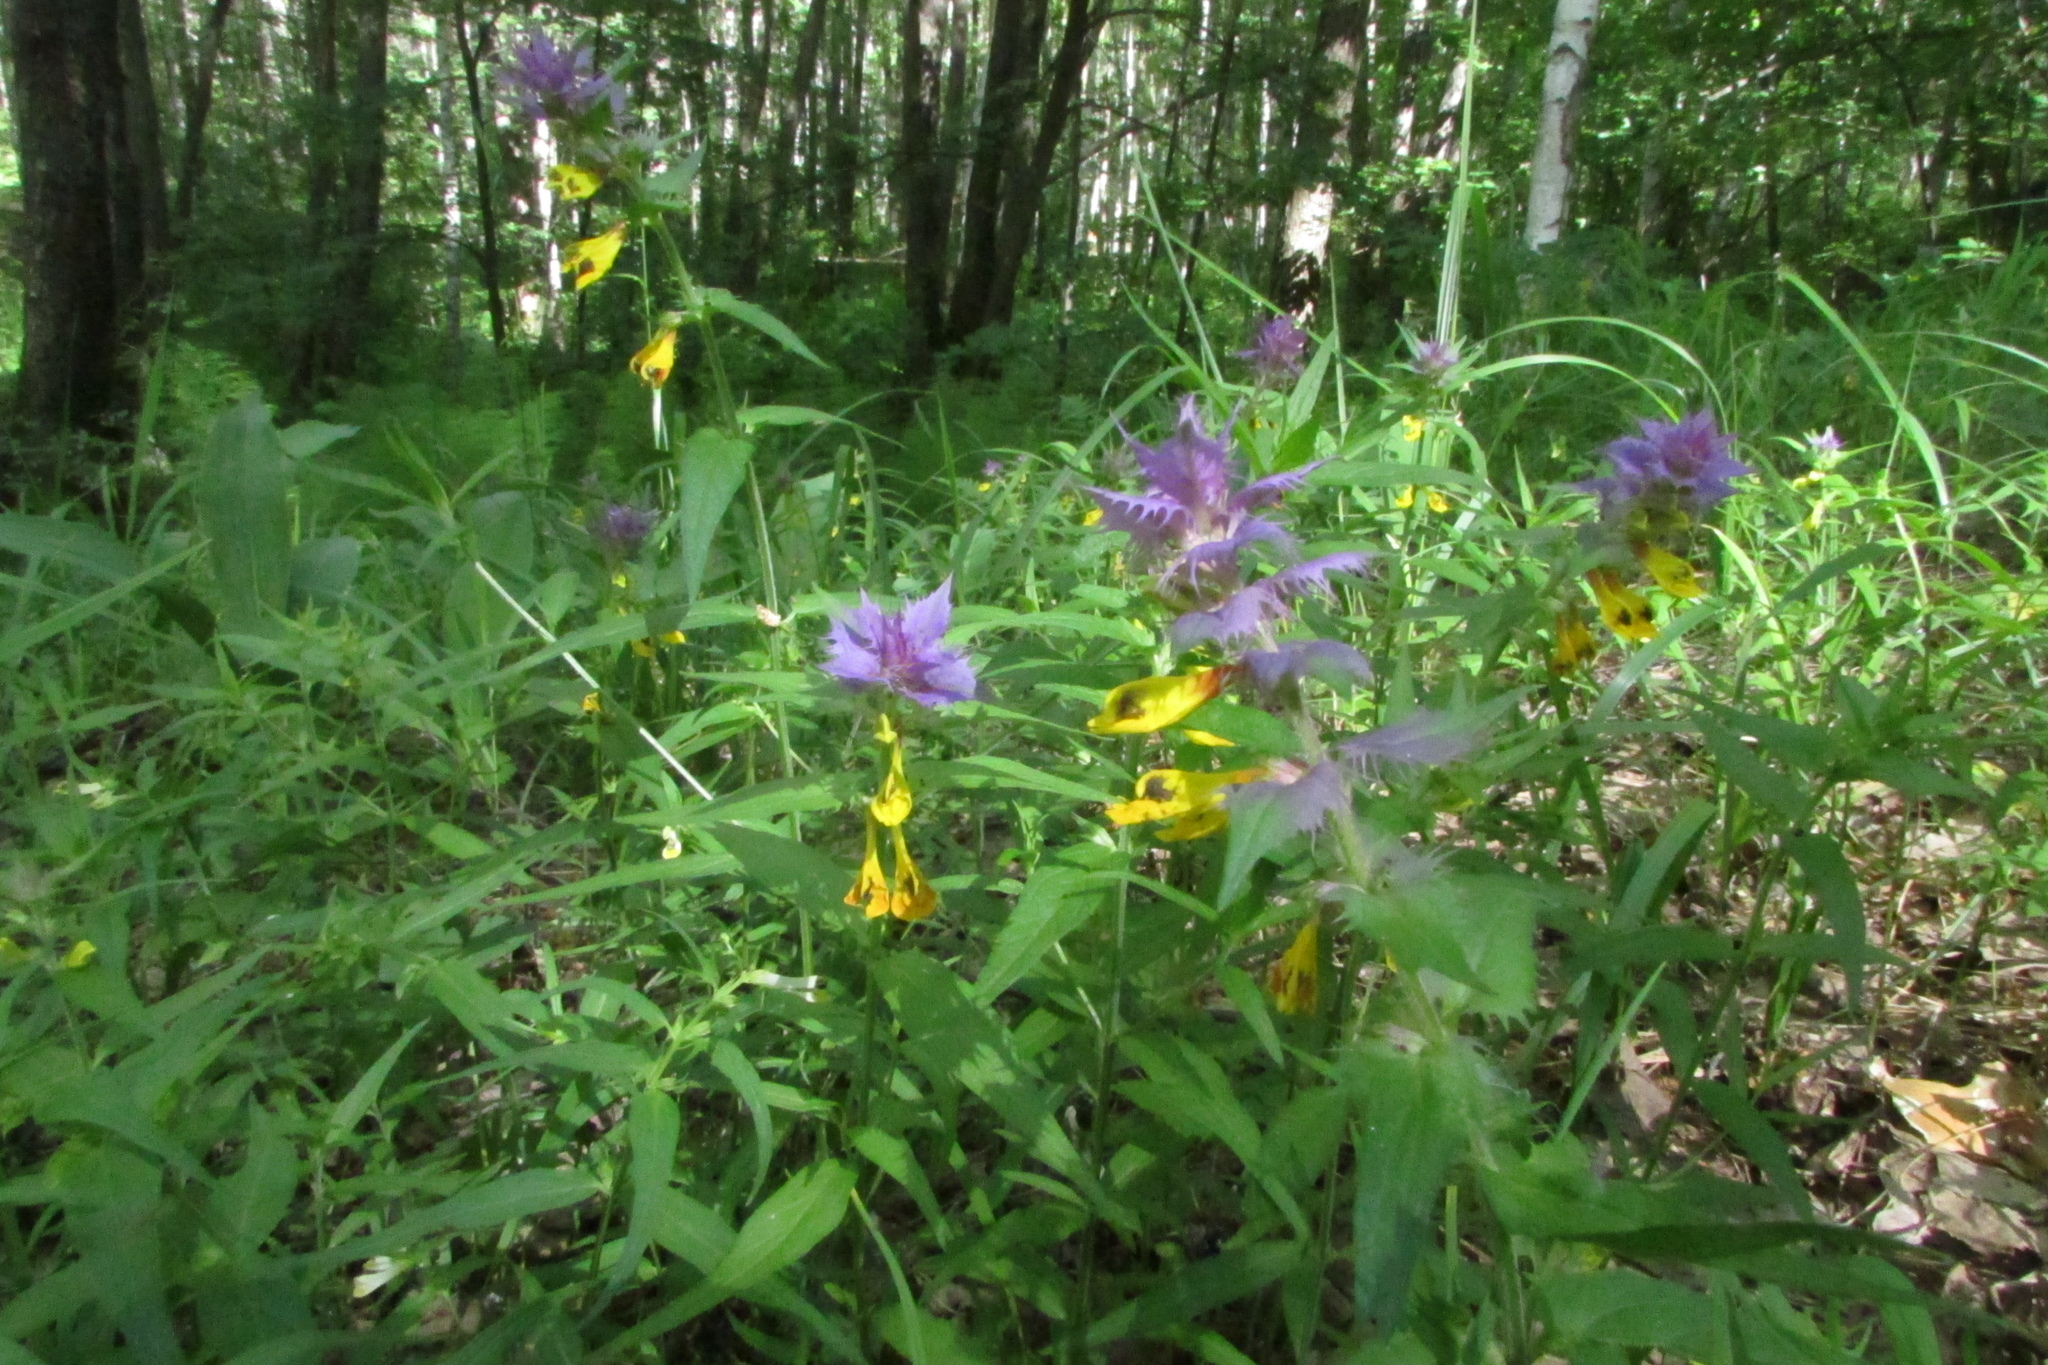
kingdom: Plantae
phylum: Tracheophyta
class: Magnoliopsida
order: Lamiales
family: Orobanchaceae
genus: Melampyrum
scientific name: Melampyrum nemorosum
